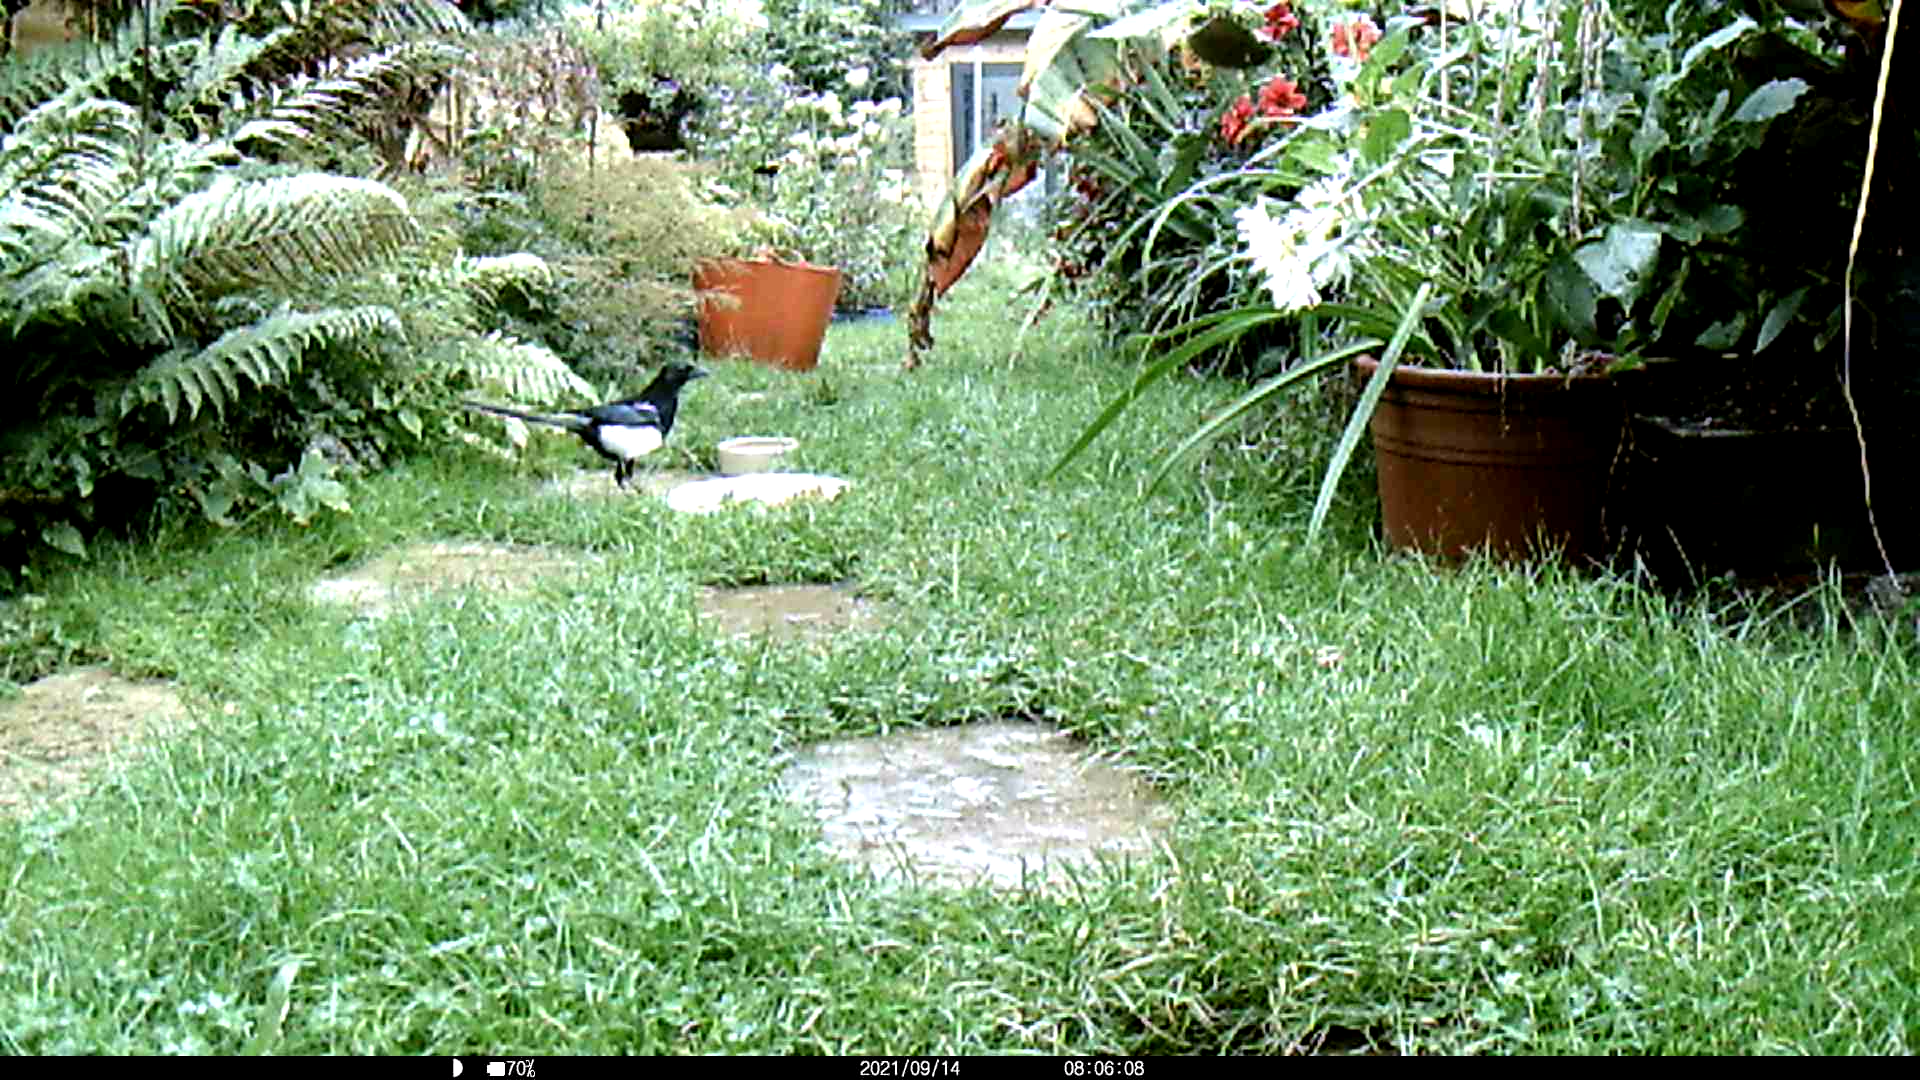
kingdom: Animalia
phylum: Chordata
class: Aves
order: Passeriformes
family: Corvidae
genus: Pica
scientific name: Pica pica
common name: Eurasian magpie
